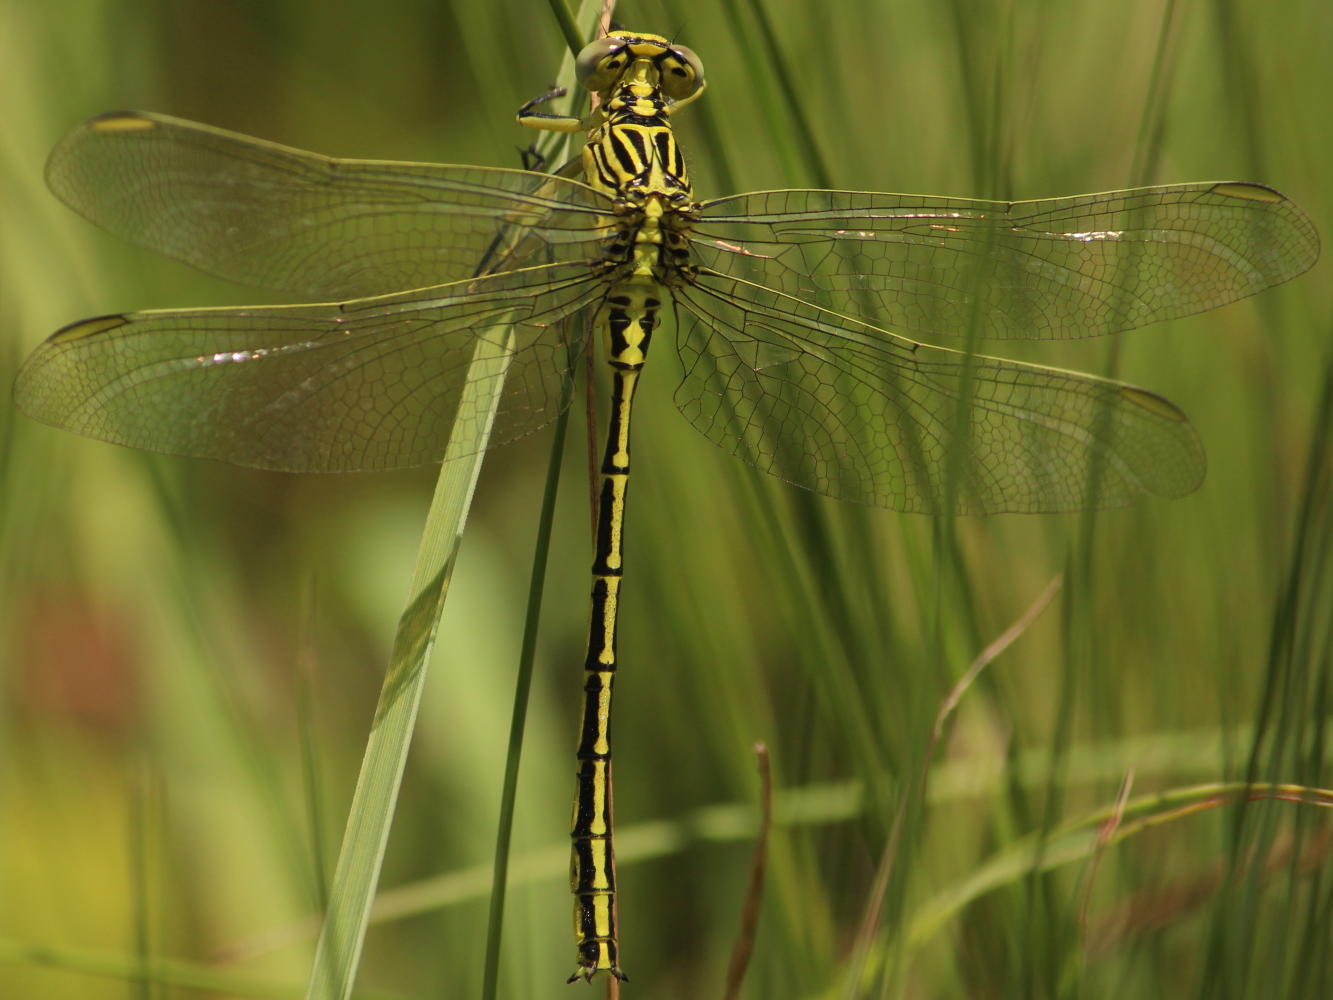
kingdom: Animalia
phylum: Arthropoda
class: Insecta
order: Odonata
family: Gomphidae
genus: Notogomphus
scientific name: Notogomphus praetorius
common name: Southern yellowjack
